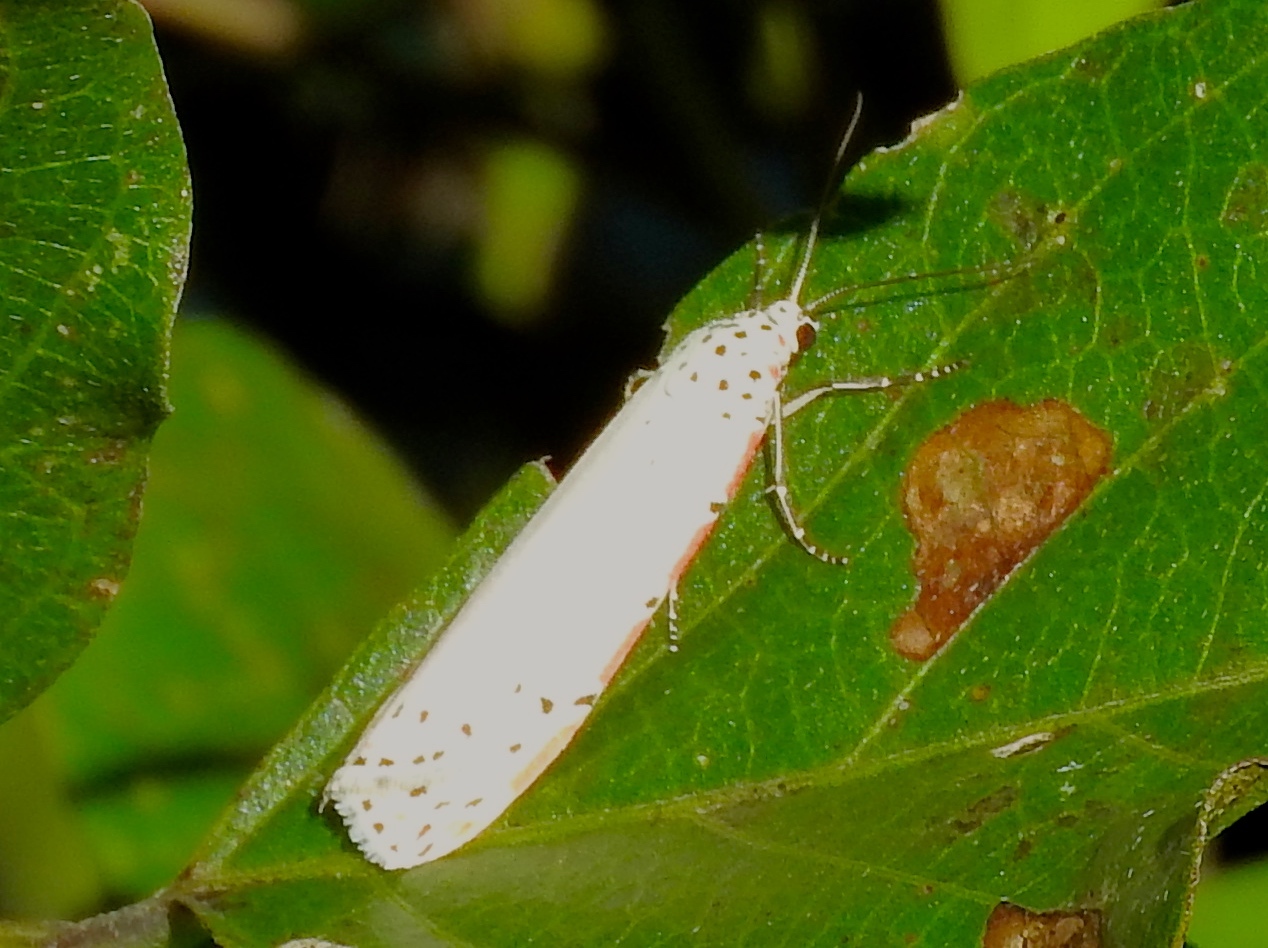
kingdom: Animalia
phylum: Arthropoda
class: Insecta
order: Lepidoptera
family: Erebidae
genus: Utetheisa
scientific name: Utetheisa ornatrix
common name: Beautiful utetheisa
